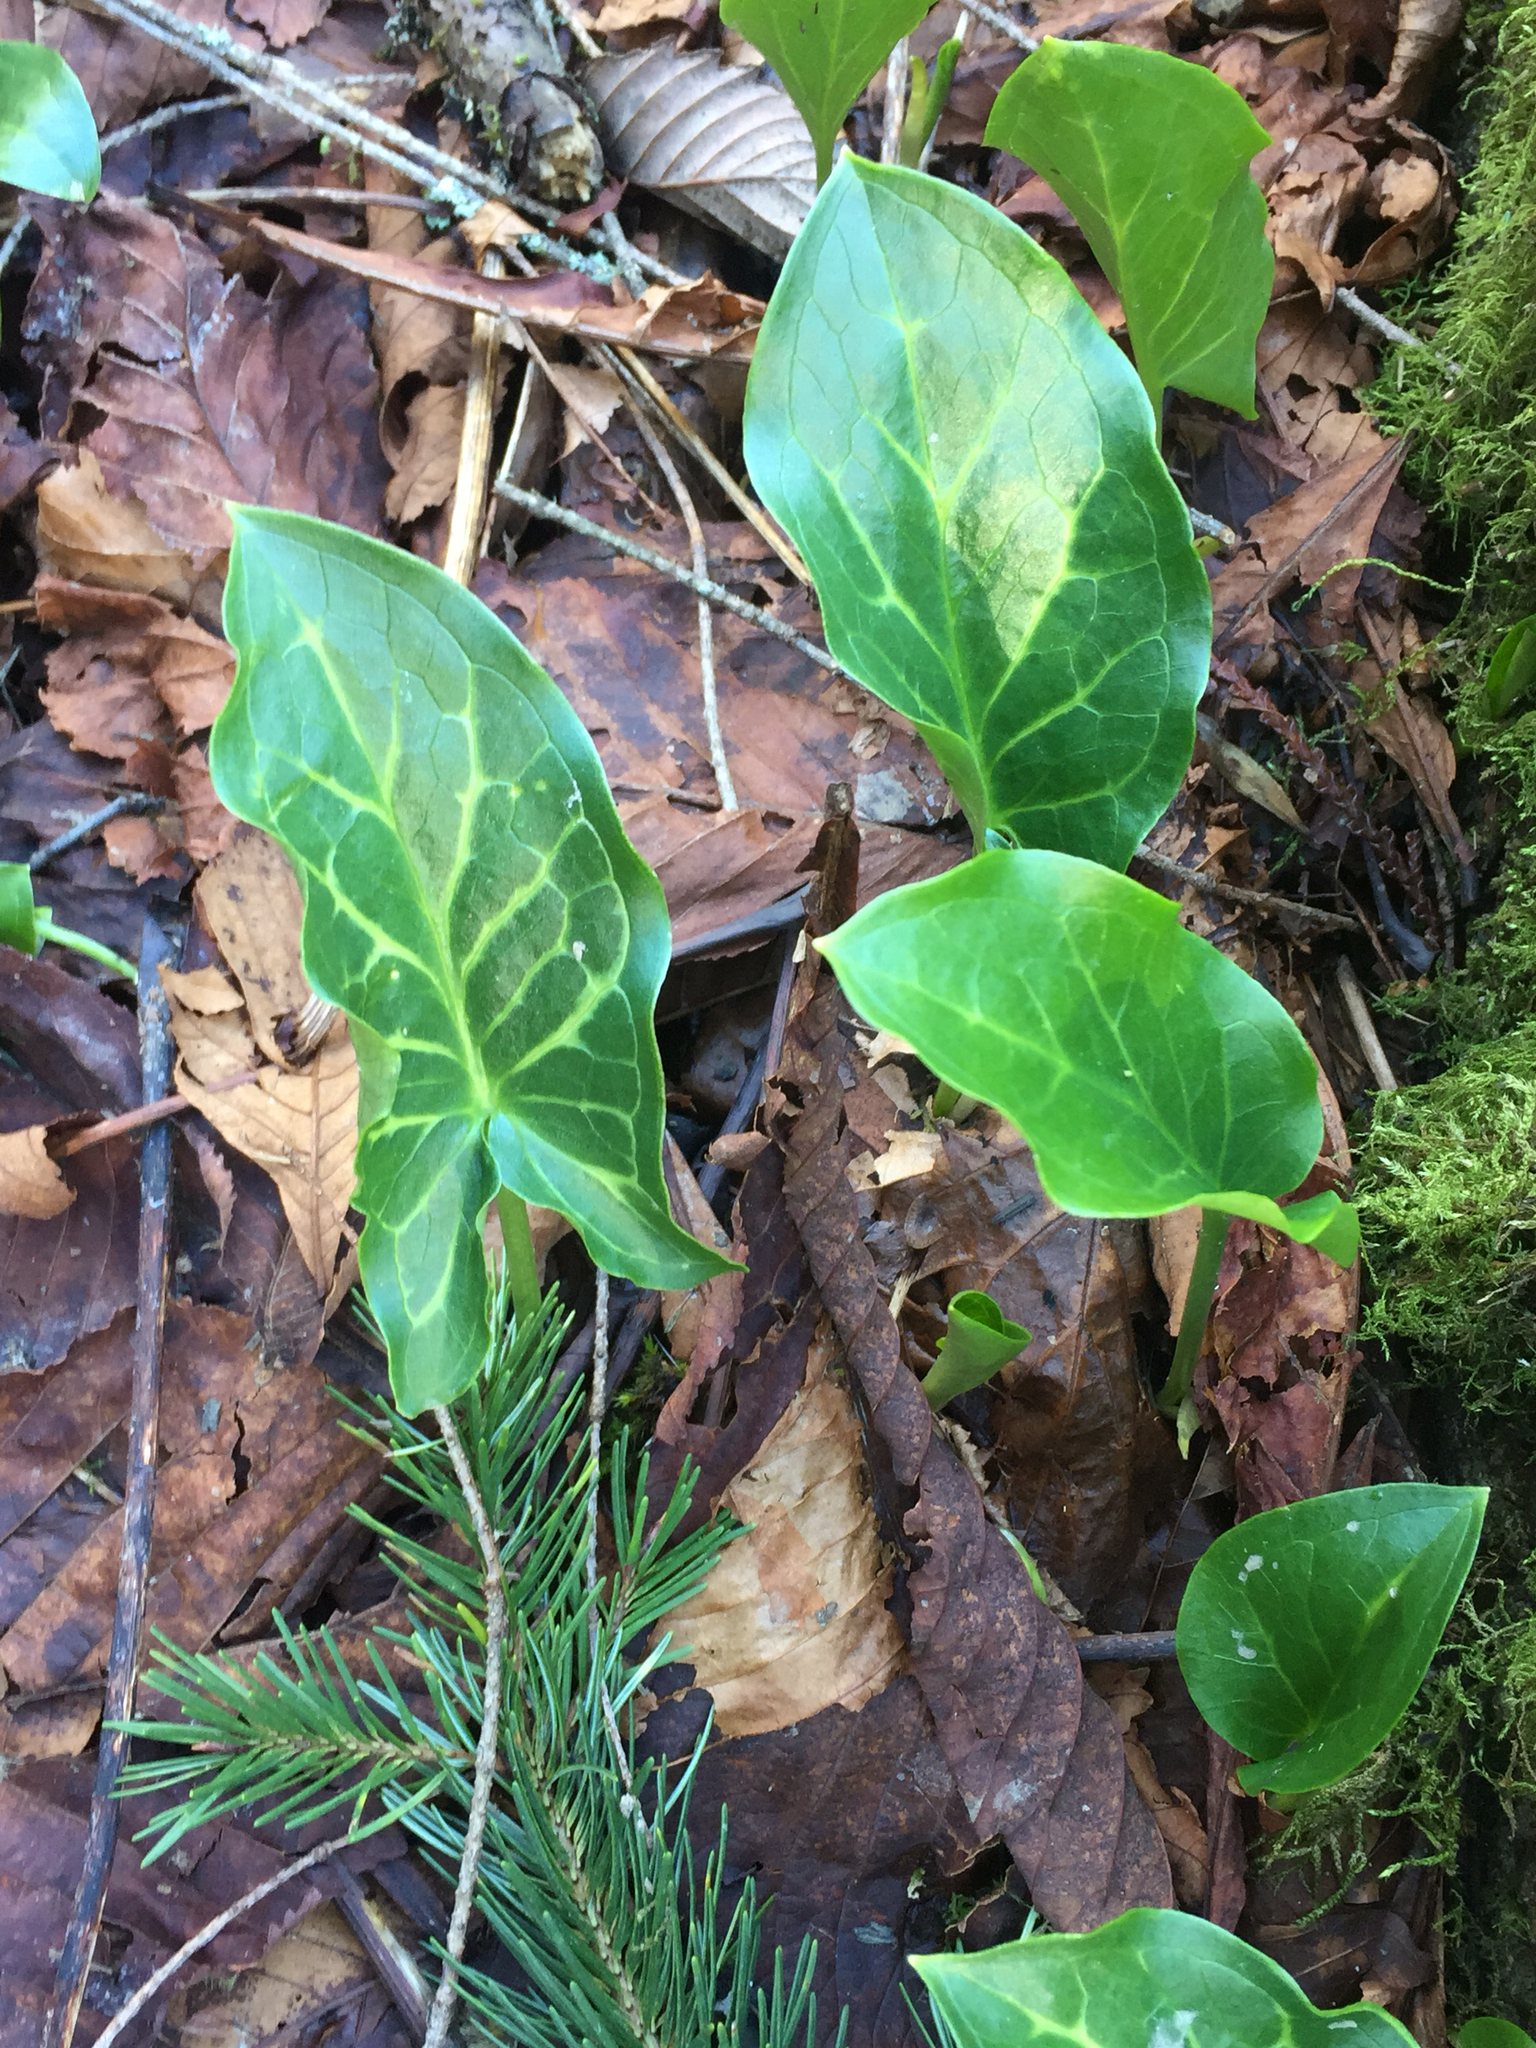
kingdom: Plantae
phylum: Tracheophyta
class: Liliopsida
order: Alismatales
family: Araceae
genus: Arum
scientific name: Arum italicum
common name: Italian lords-and-ladies
